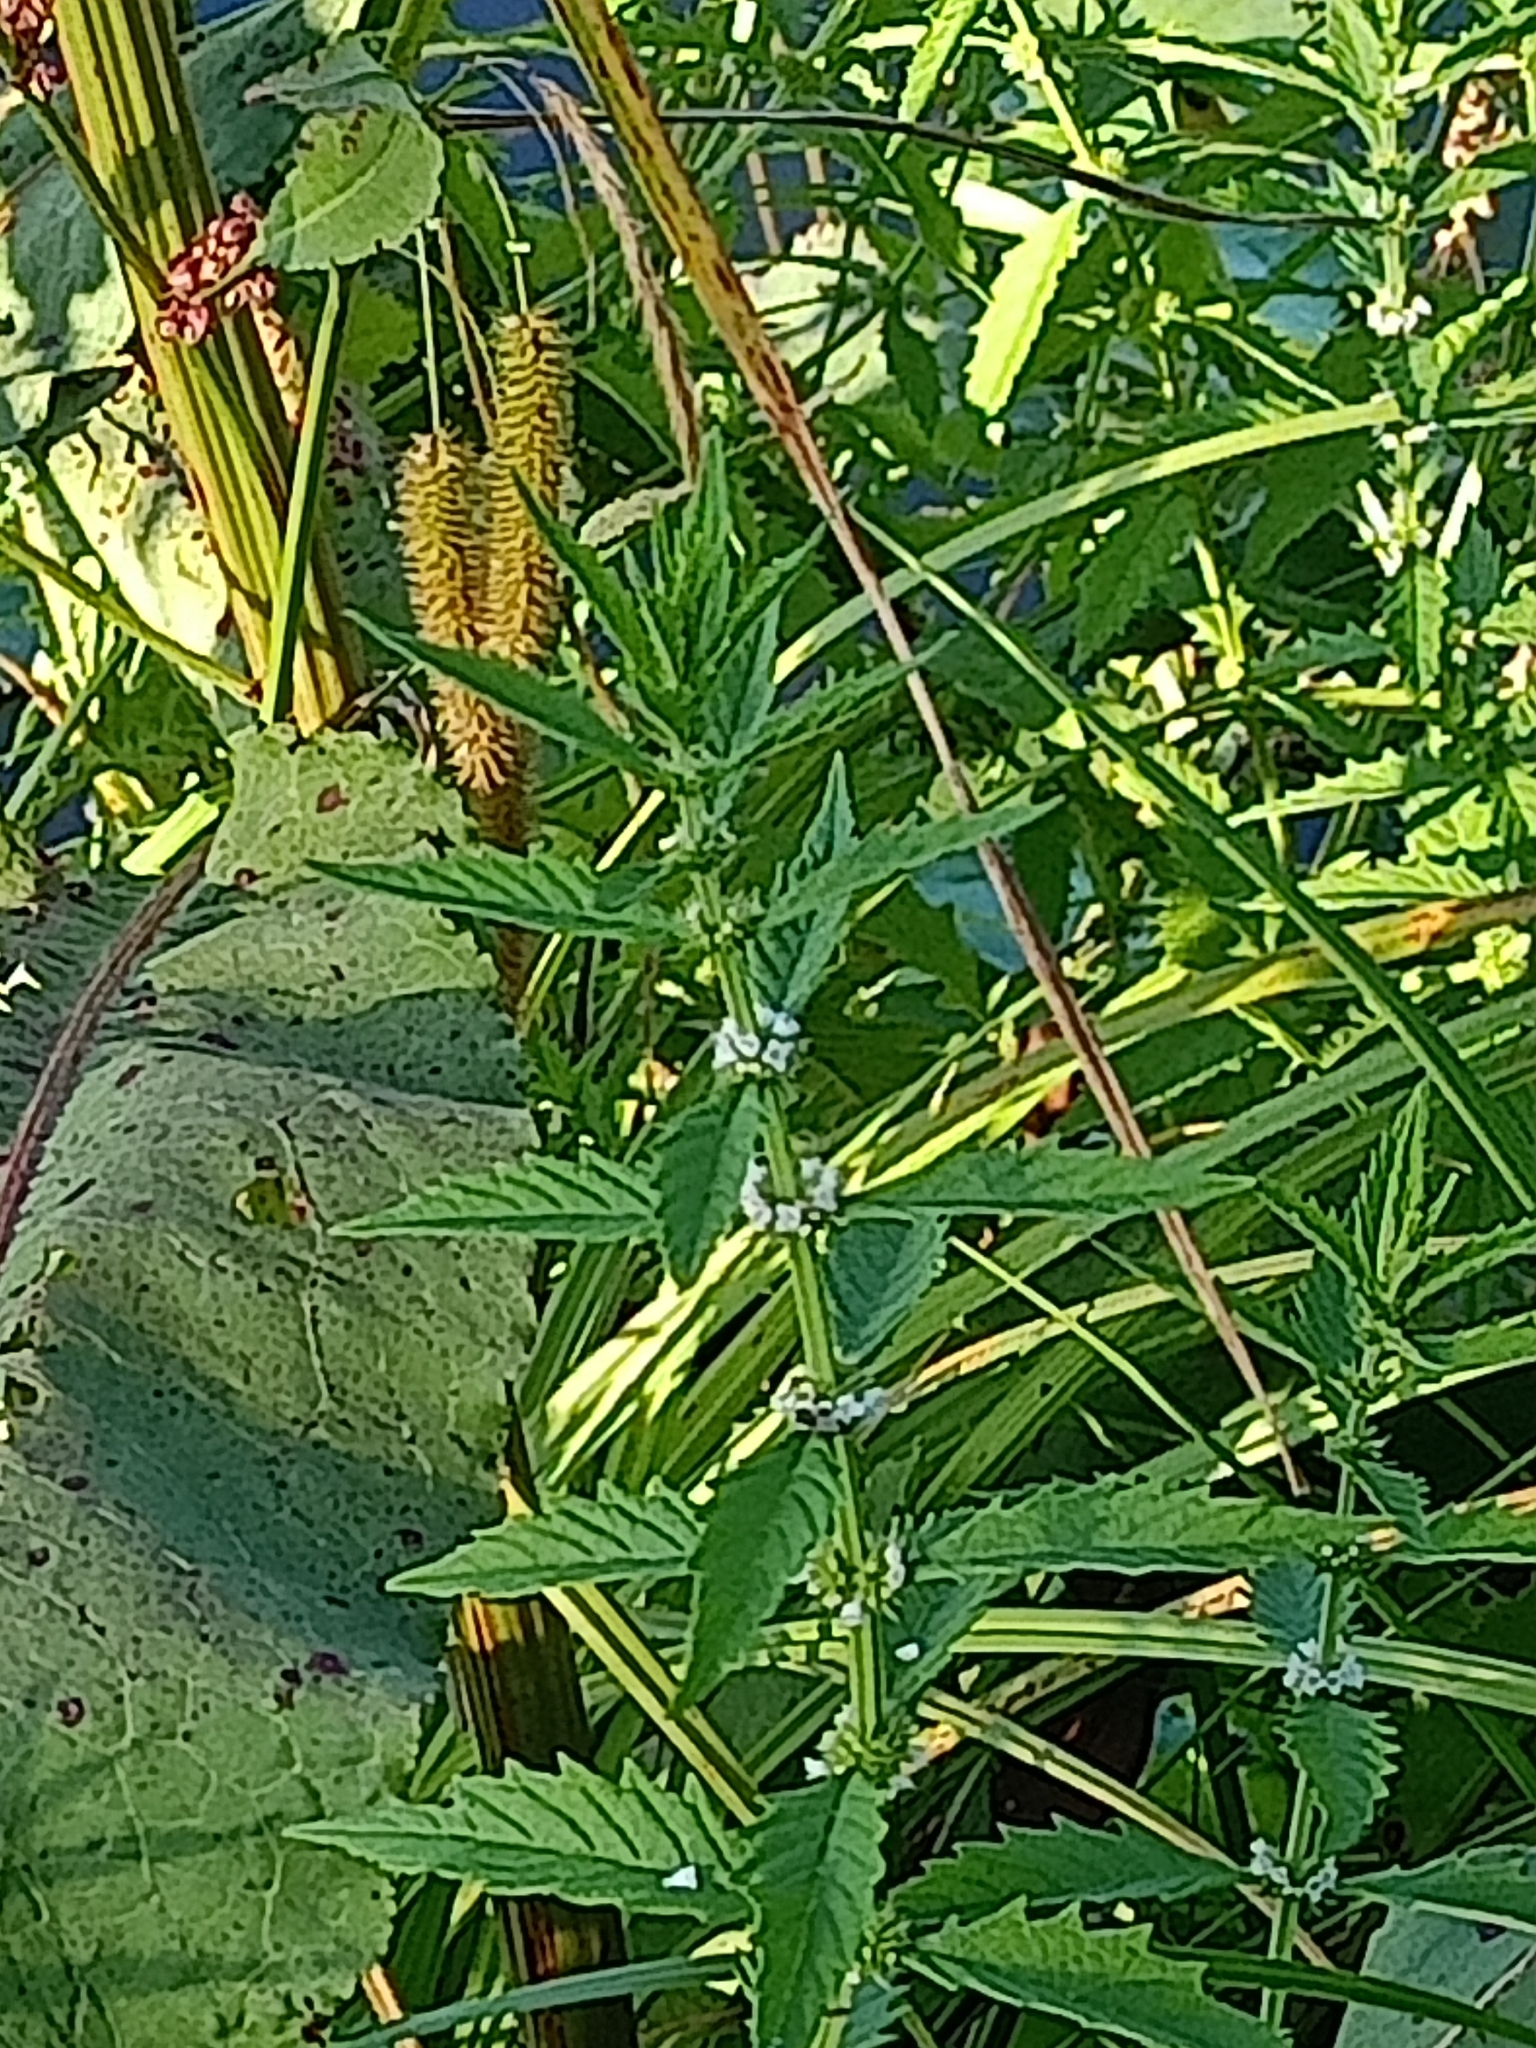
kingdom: Plantae
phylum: Tracheophyta
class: Magnoliopsida
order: Lamiales
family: Lamiaceae
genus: Lycopus
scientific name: Lycopus europaeus
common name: European bugleweed
